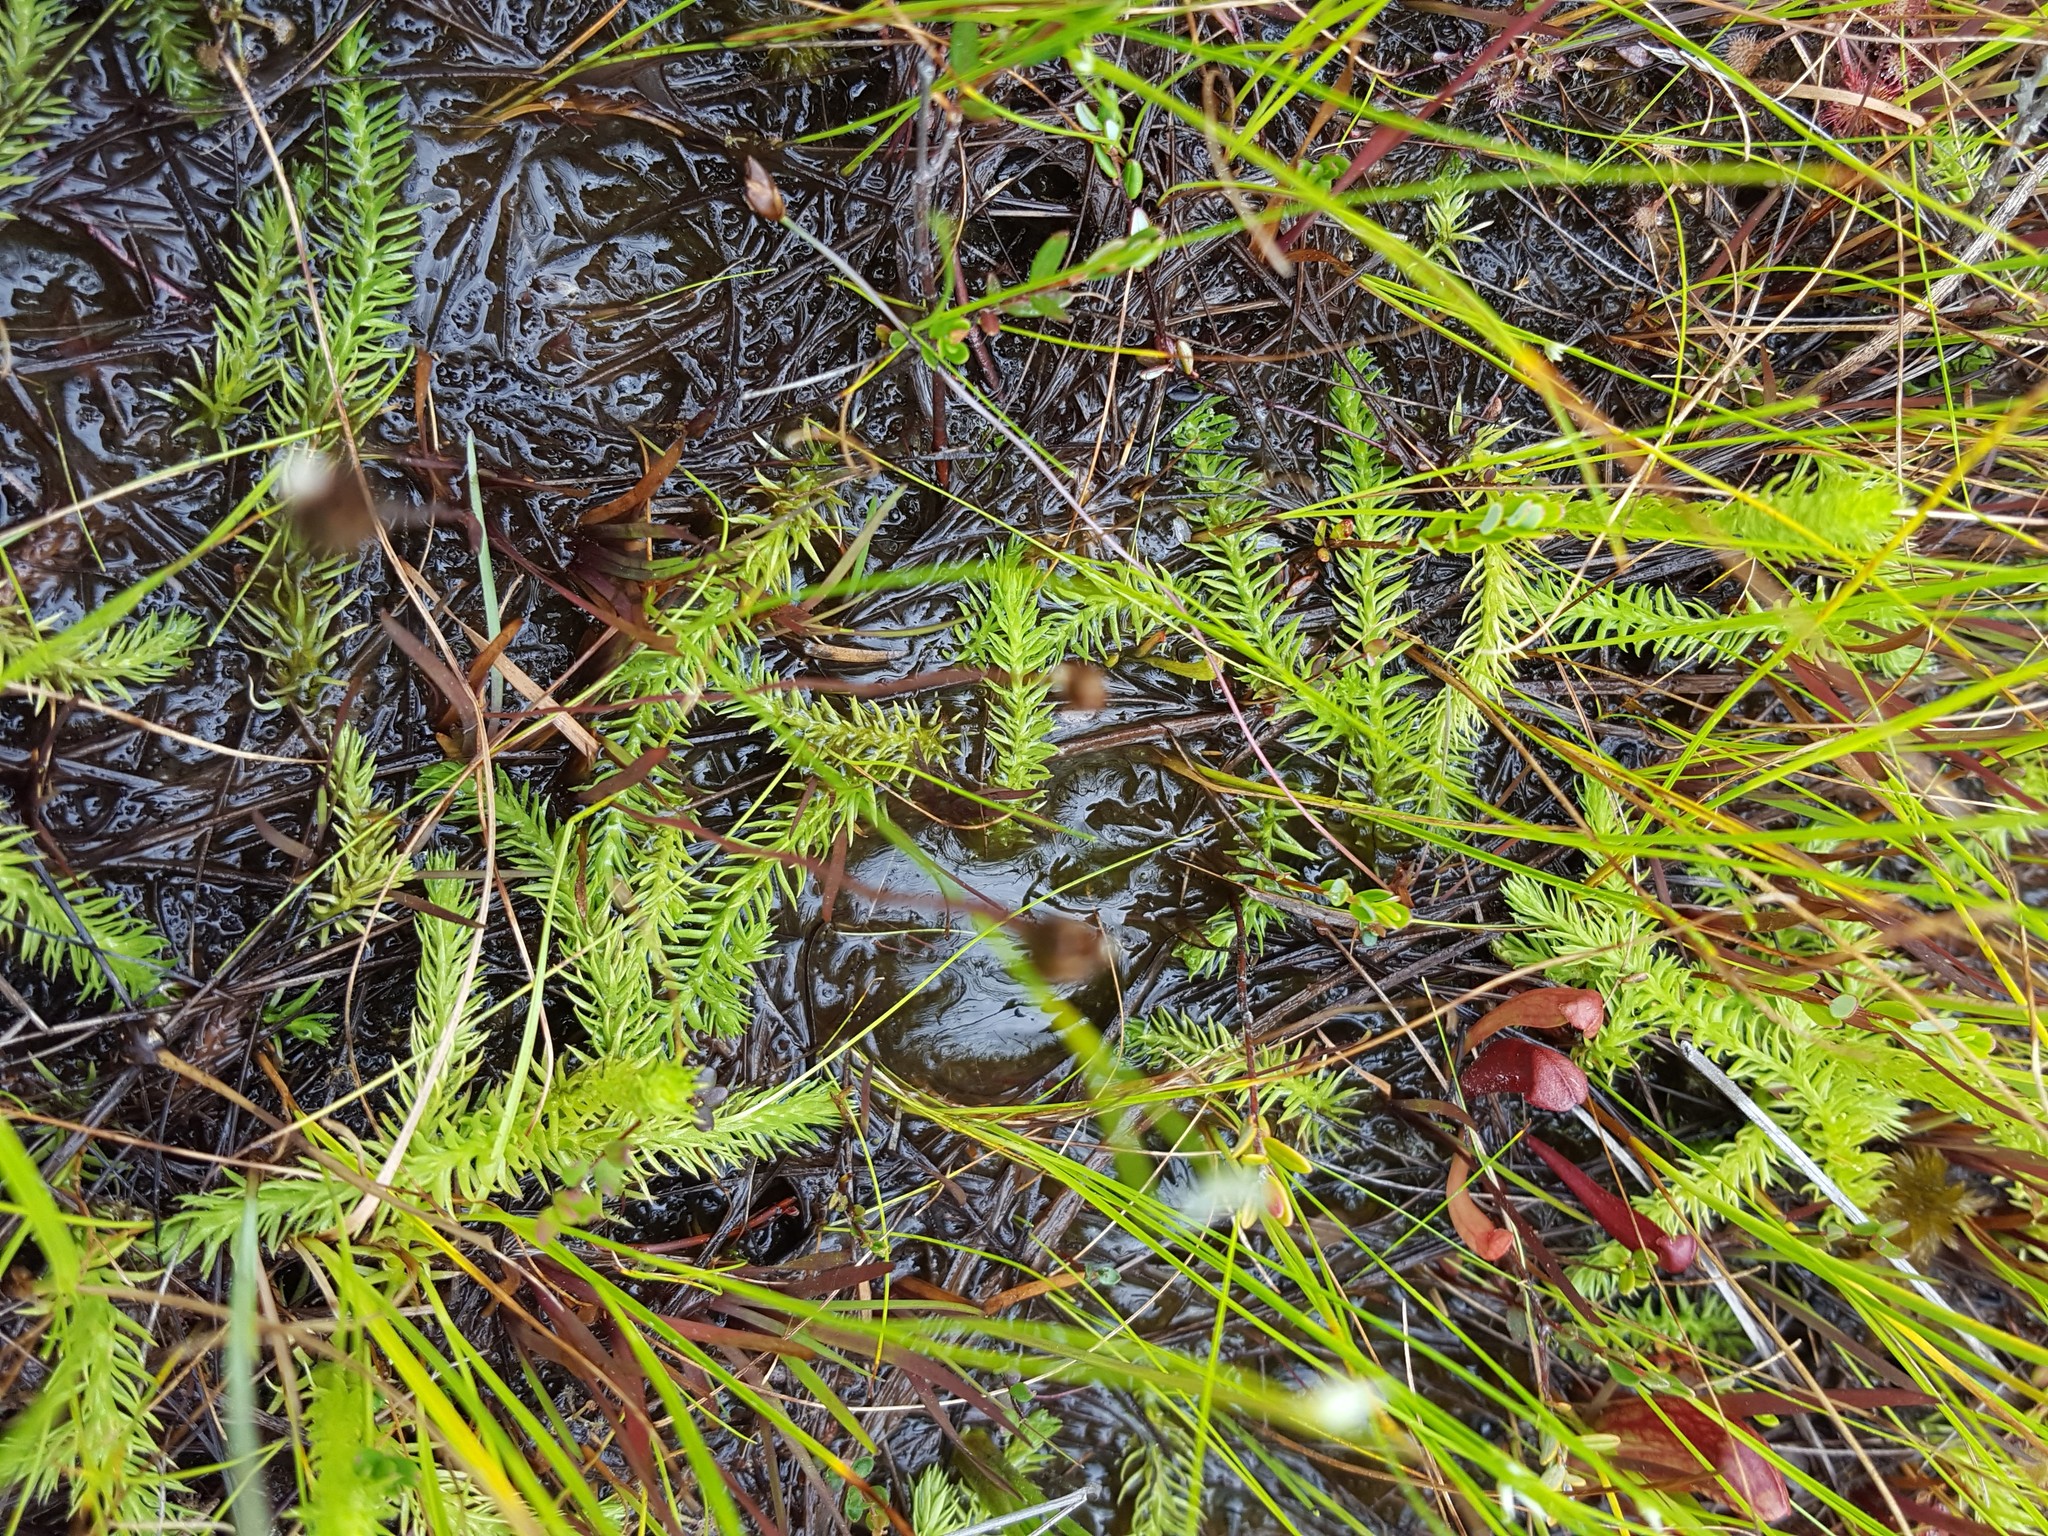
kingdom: Plantae
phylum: Tracheophyta
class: Lycopodiopsida
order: Lycopodiales
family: Lycopodiaceae
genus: Lycopodiella
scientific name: Lycopodiella inundata
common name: Marsh clubmoss
